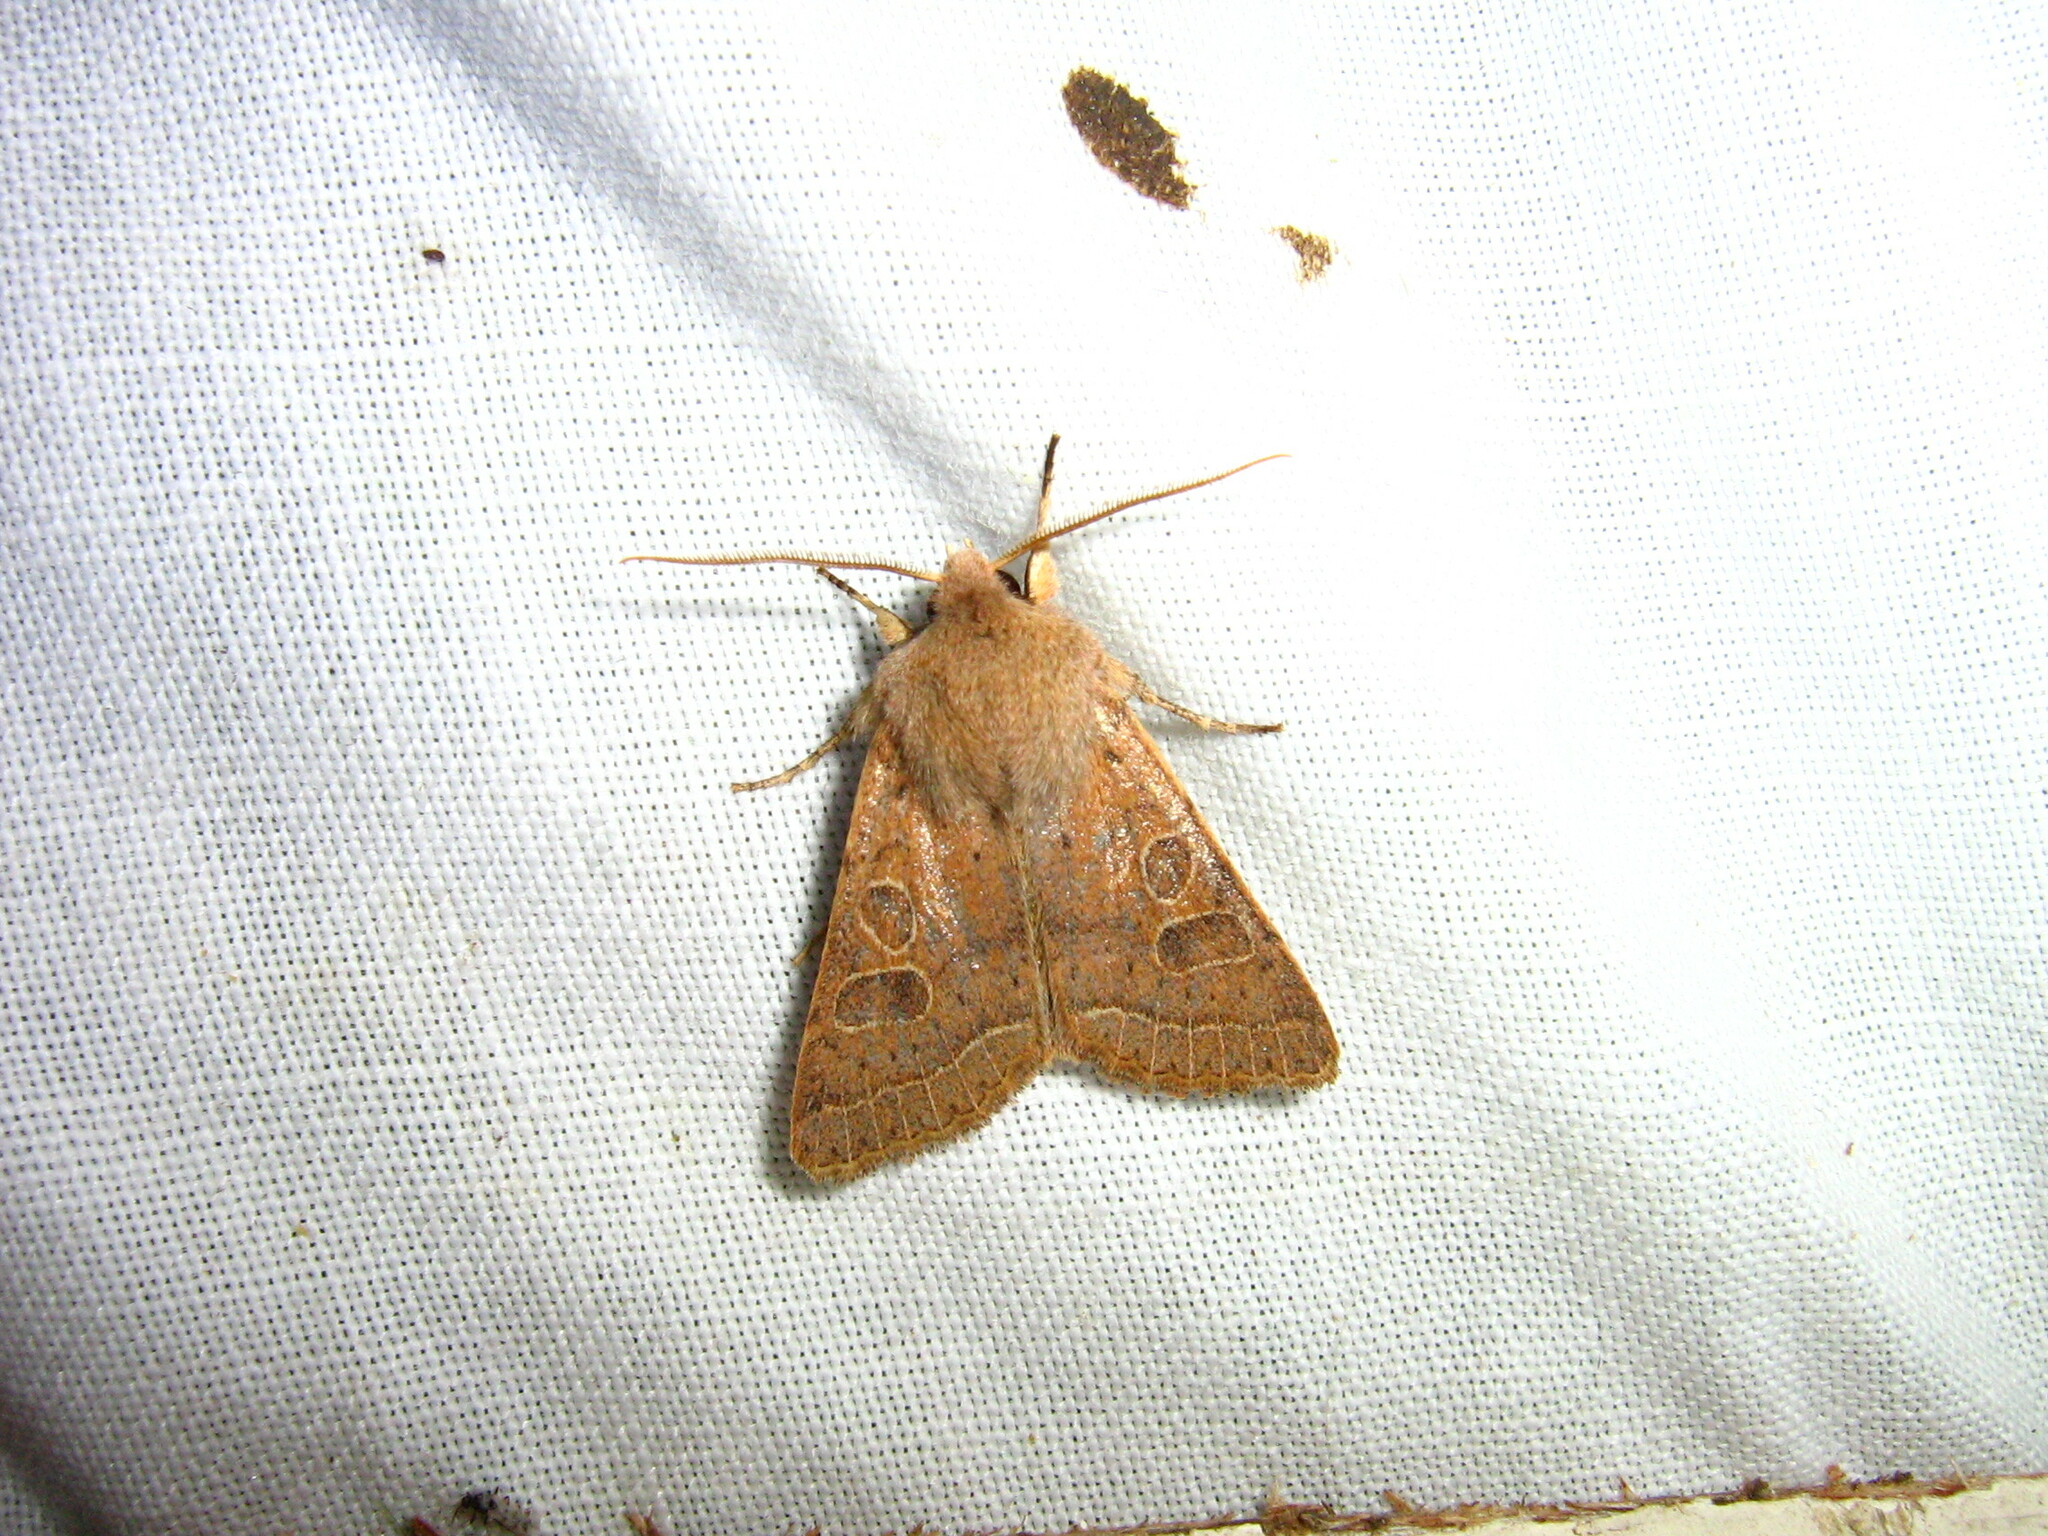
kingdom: Animalia
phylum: Arthropoda
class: Insecta
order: Lepidoptera
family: Noctuidae
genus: Orthosia
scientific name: Orthosia cerasi
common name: Common quaker
